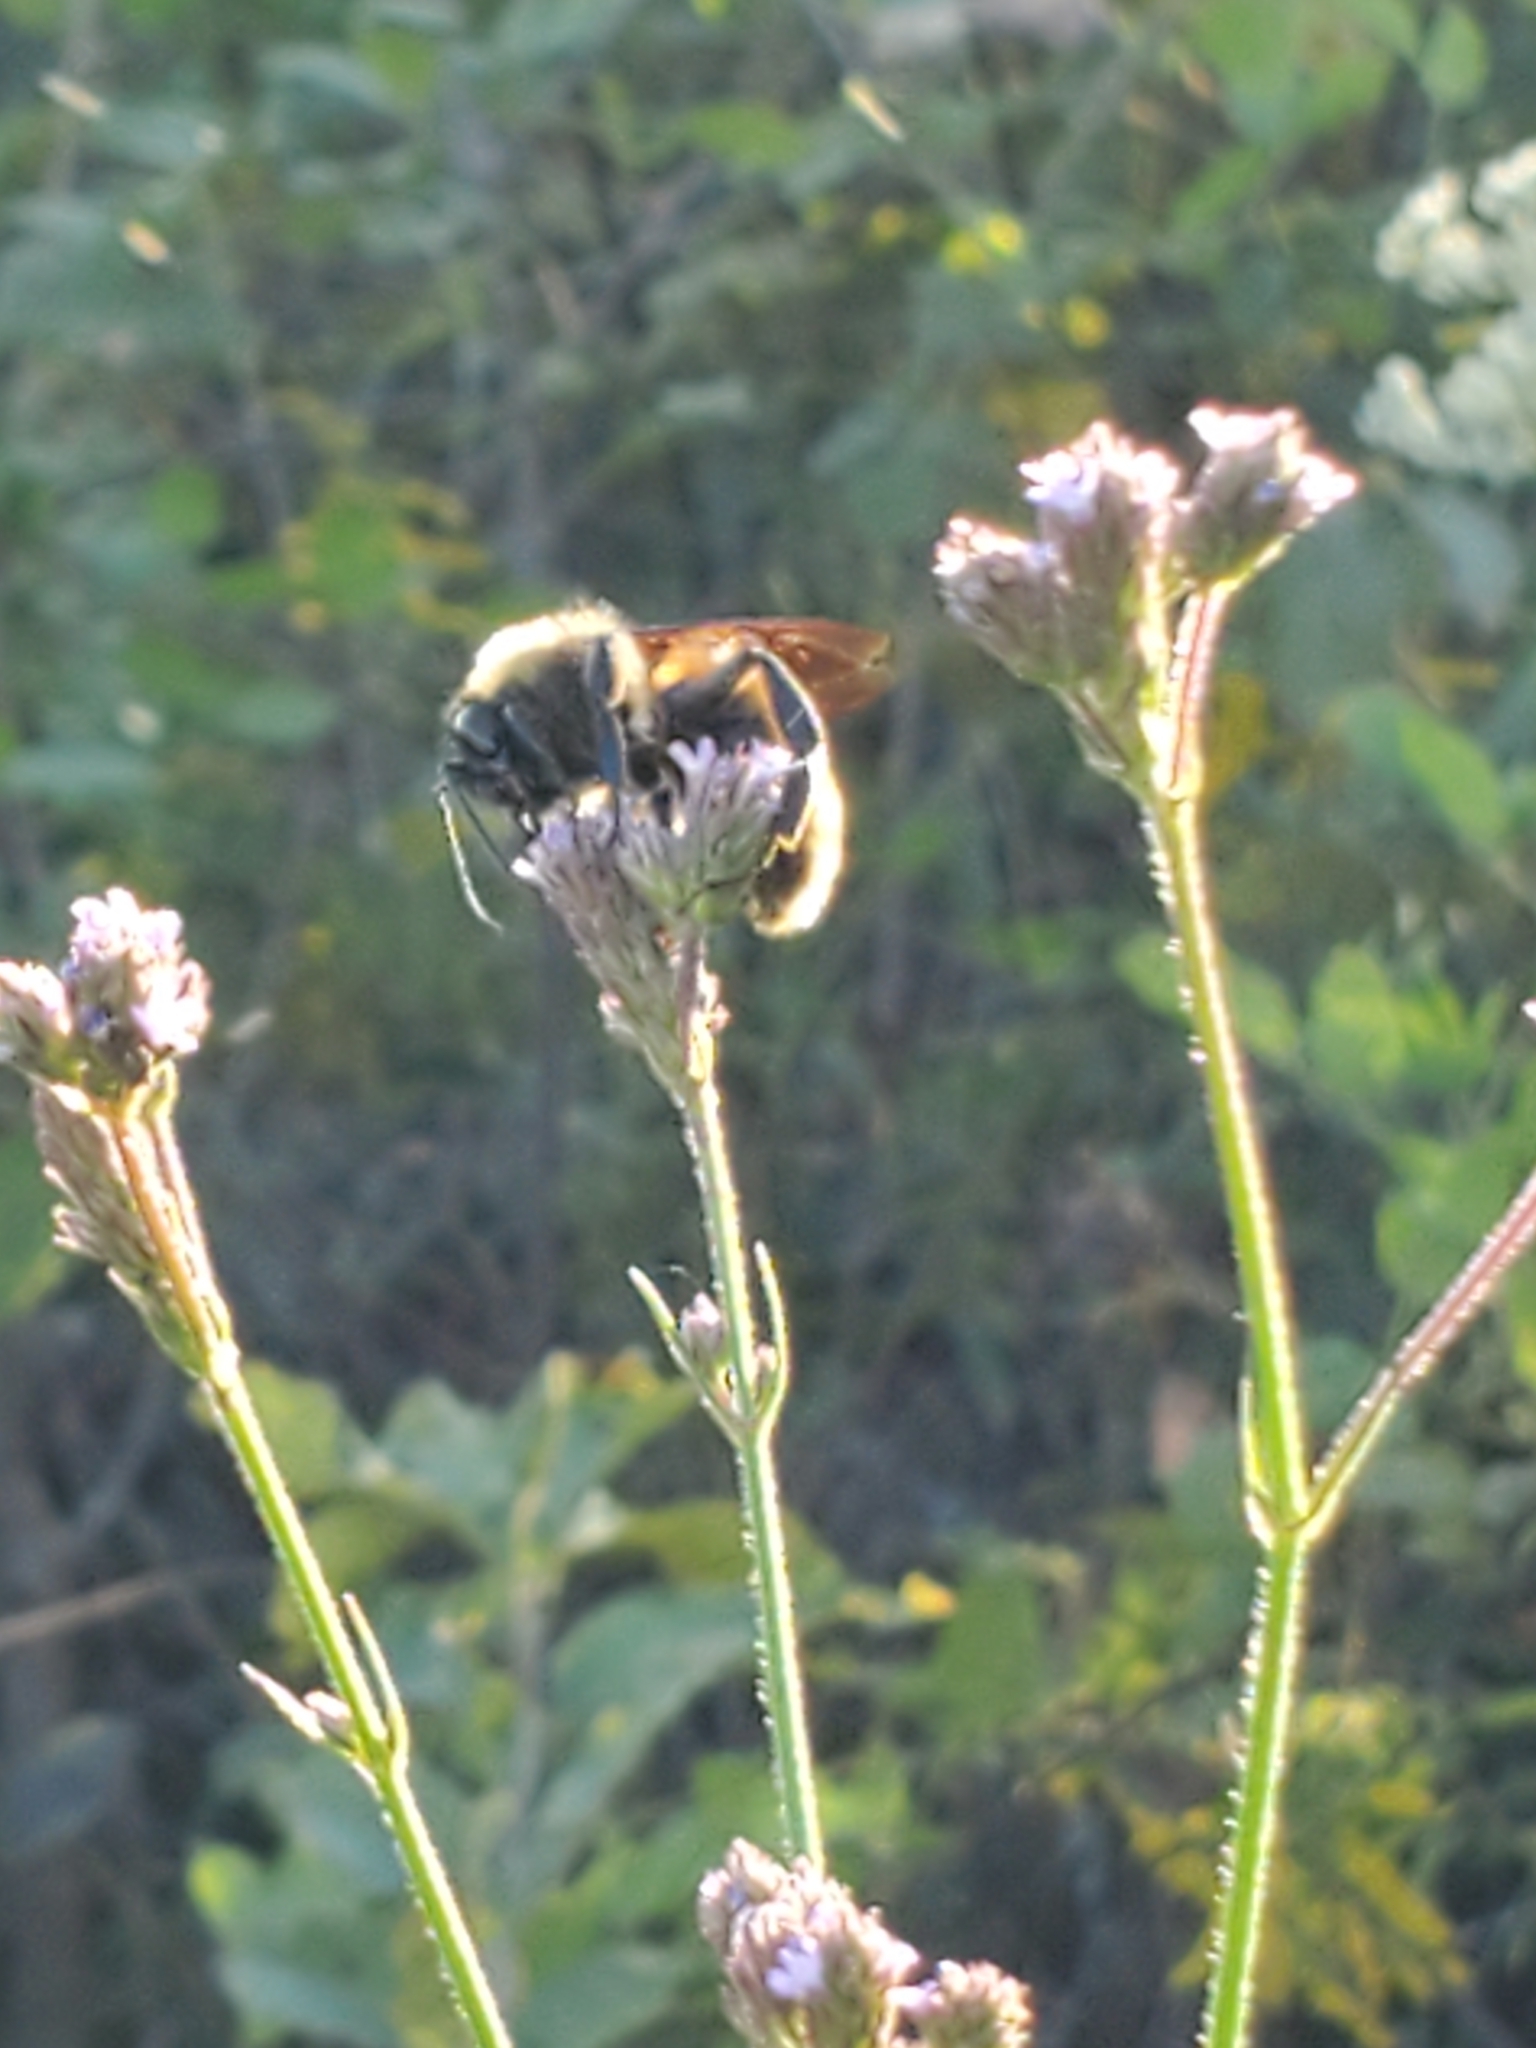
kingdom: Animalia
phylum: Arthropoda
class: Insecta
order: Hymenoptera
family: Apidae
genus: Bombus
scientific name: Bombus pensylvanicus
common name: Bumble bee
